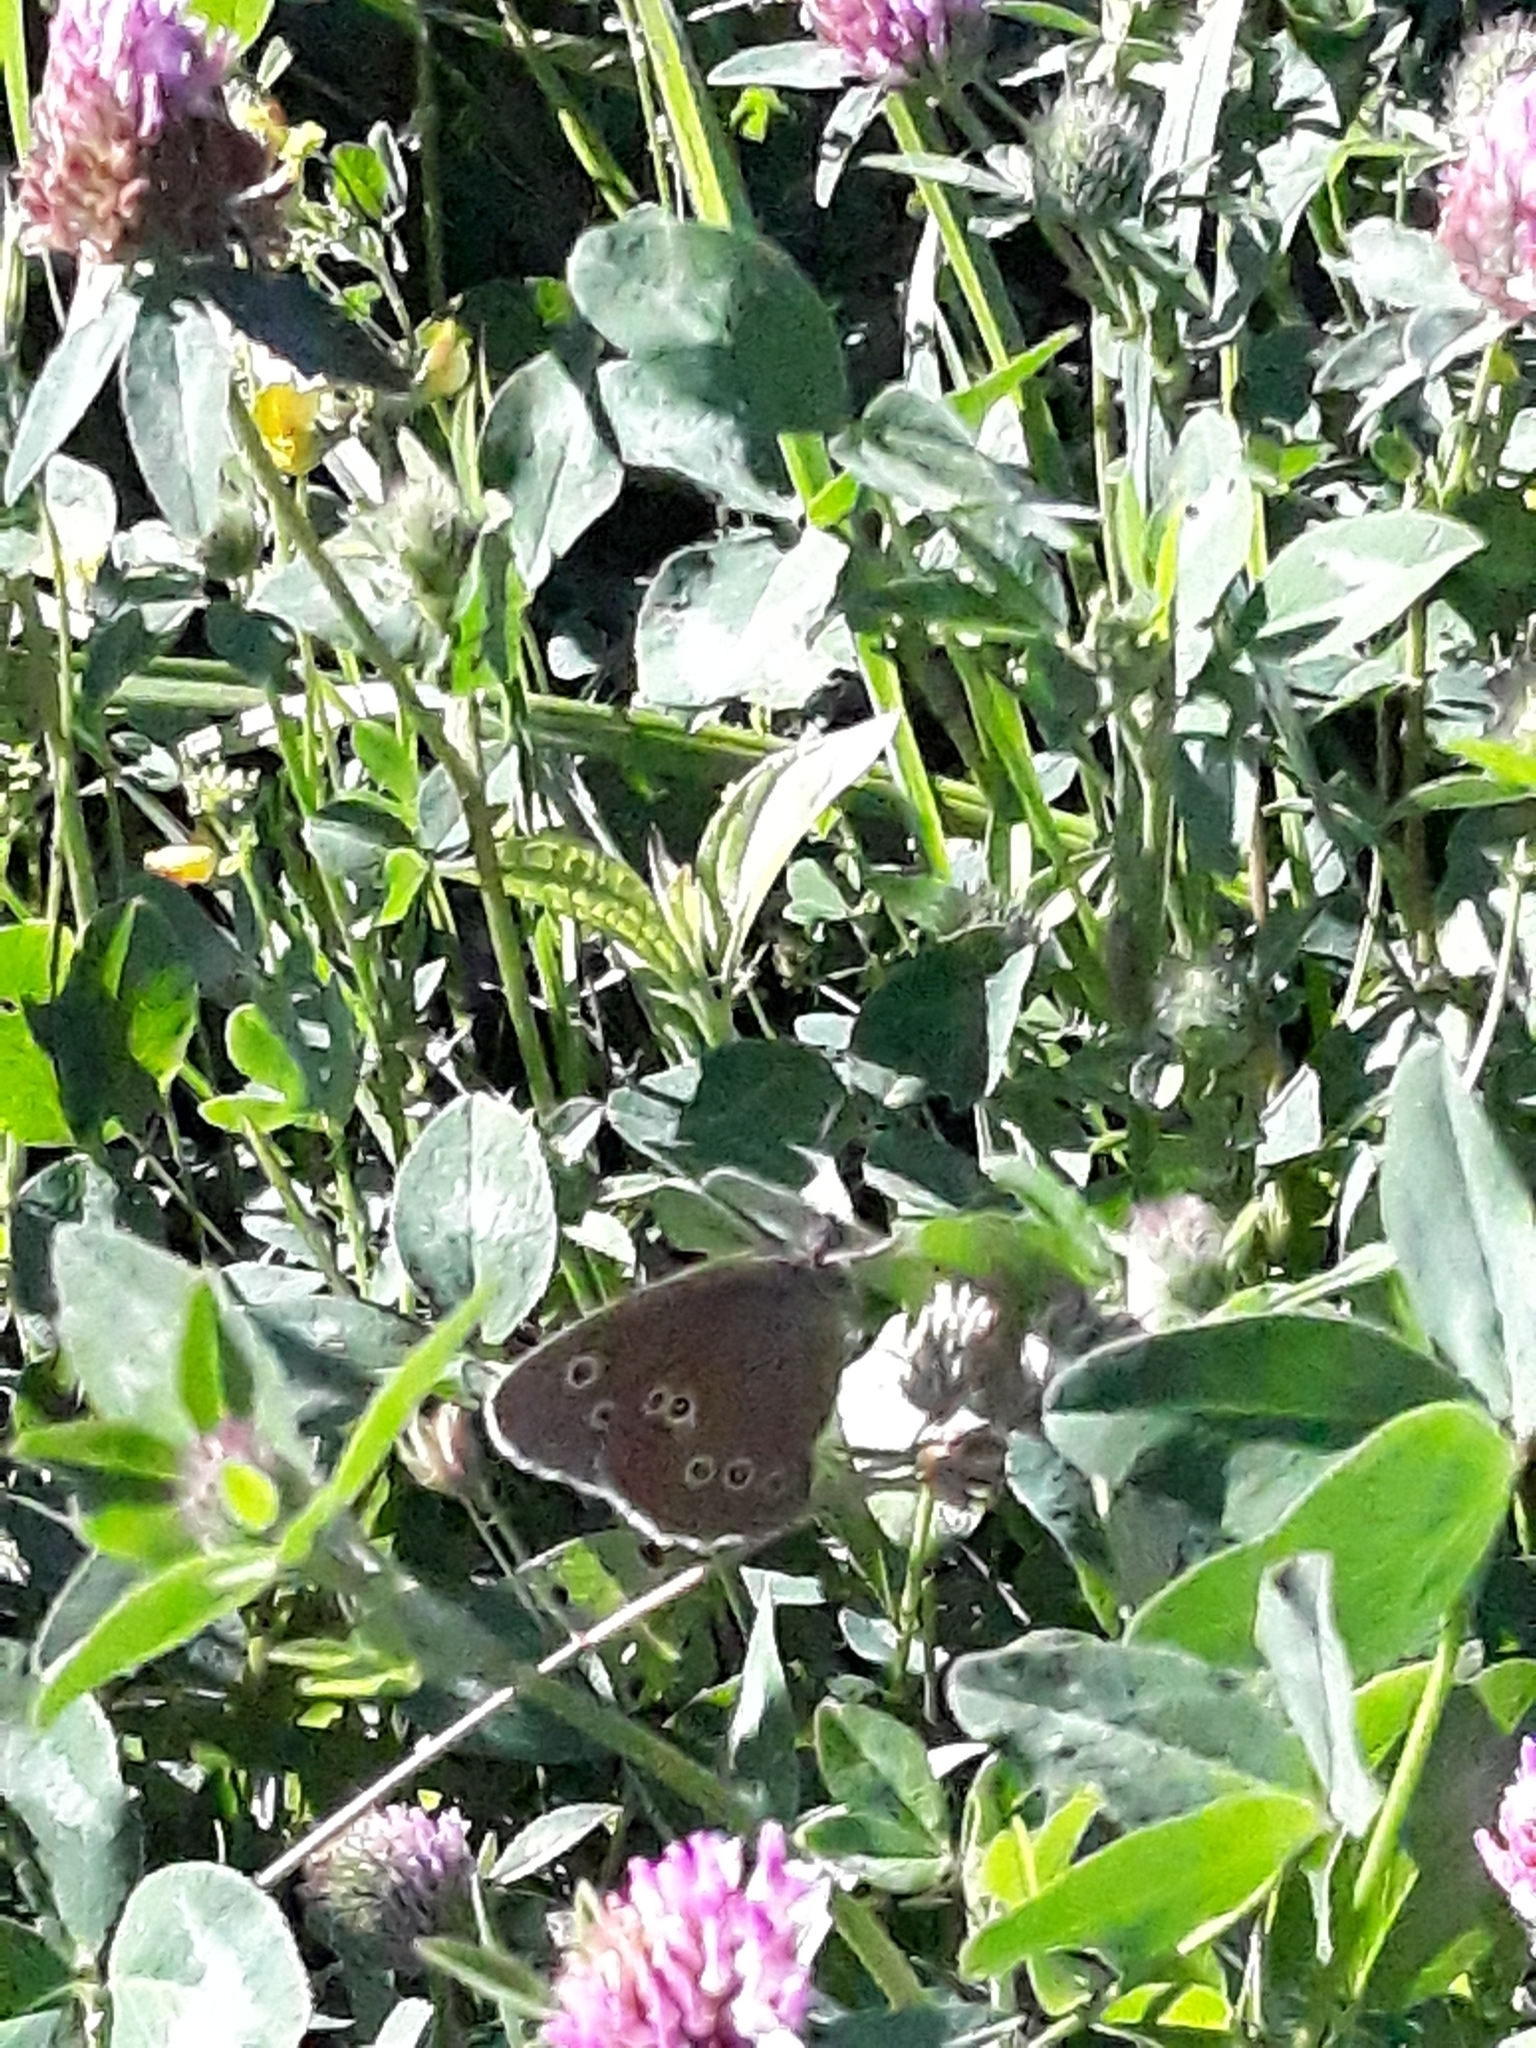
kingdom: Animalia
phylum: Arthropoda
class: Insecta
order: Lepidoptera
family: Nymphalidae
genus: Aphantopus
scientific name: Aphantopus hyperantus
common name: Ringlet
